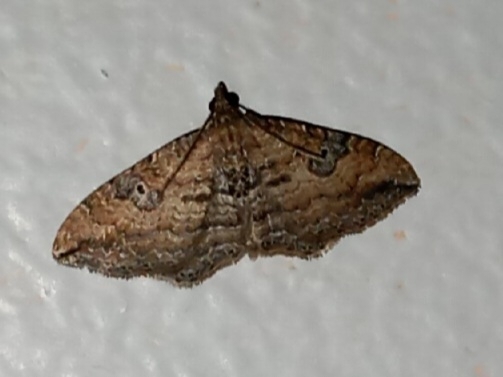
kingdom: Animalia
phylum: Arthropoda
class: Insecta
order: Lepidoptera
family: Geometridae
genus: Orthonama
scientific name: Orthonama obstipata
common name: The gem
